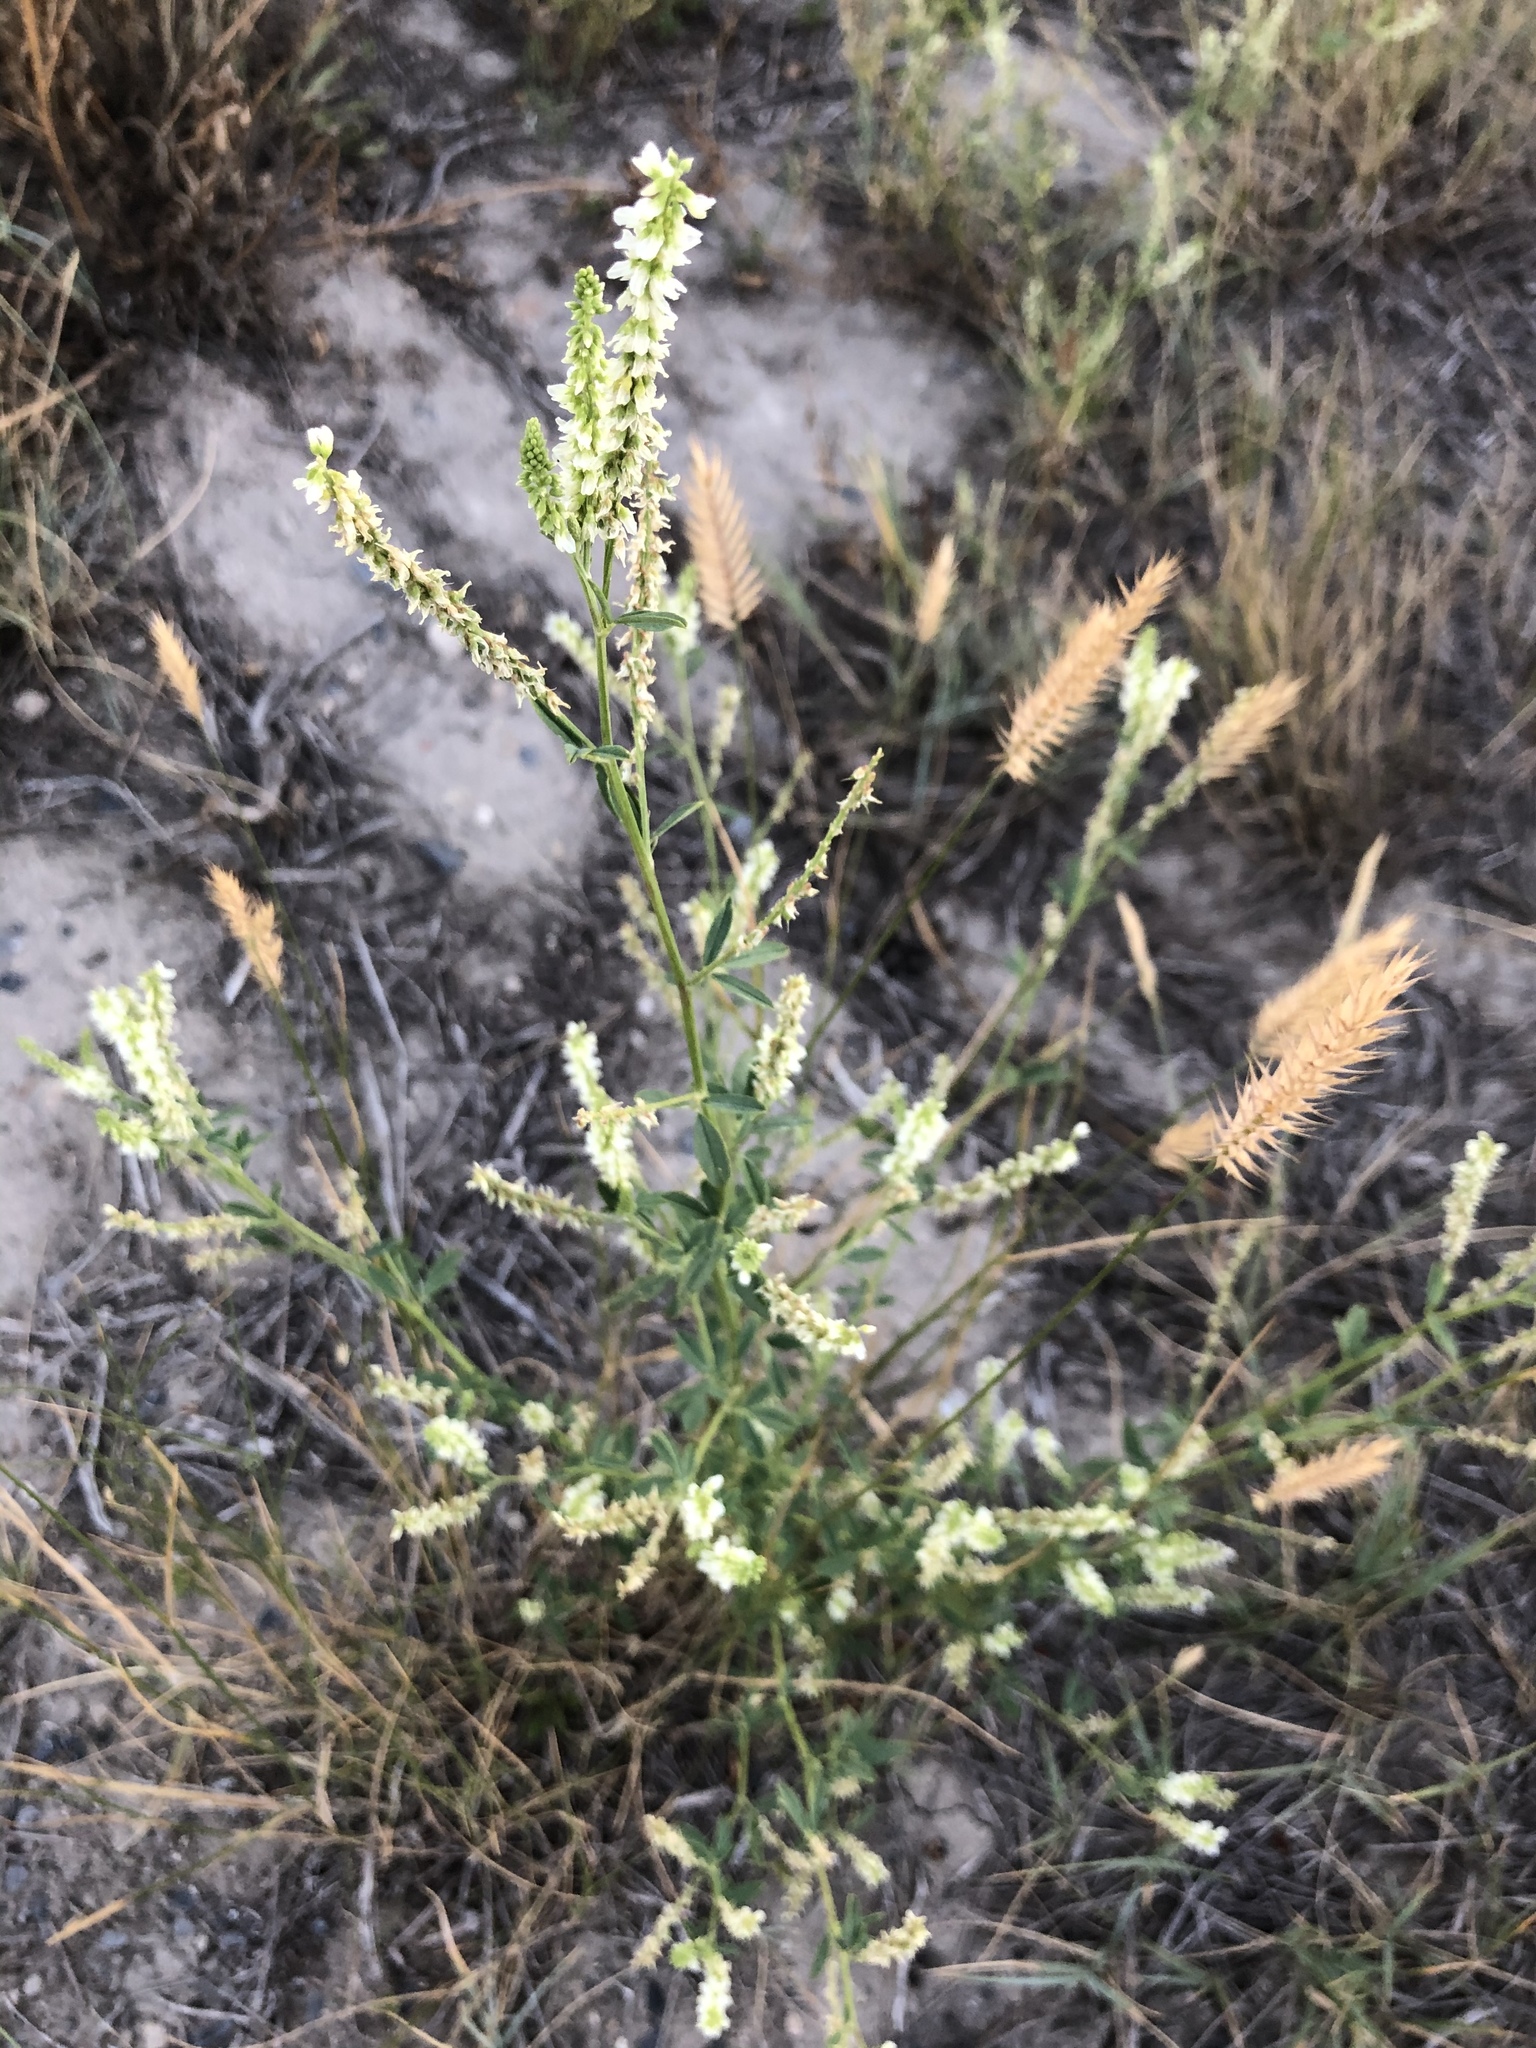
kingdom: Plantae
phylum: Tracheophyta
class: Magnoliopsida
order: Fabales
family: Fabaceae
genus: Melilotus
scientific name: Melilotus albus
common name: White melilot
